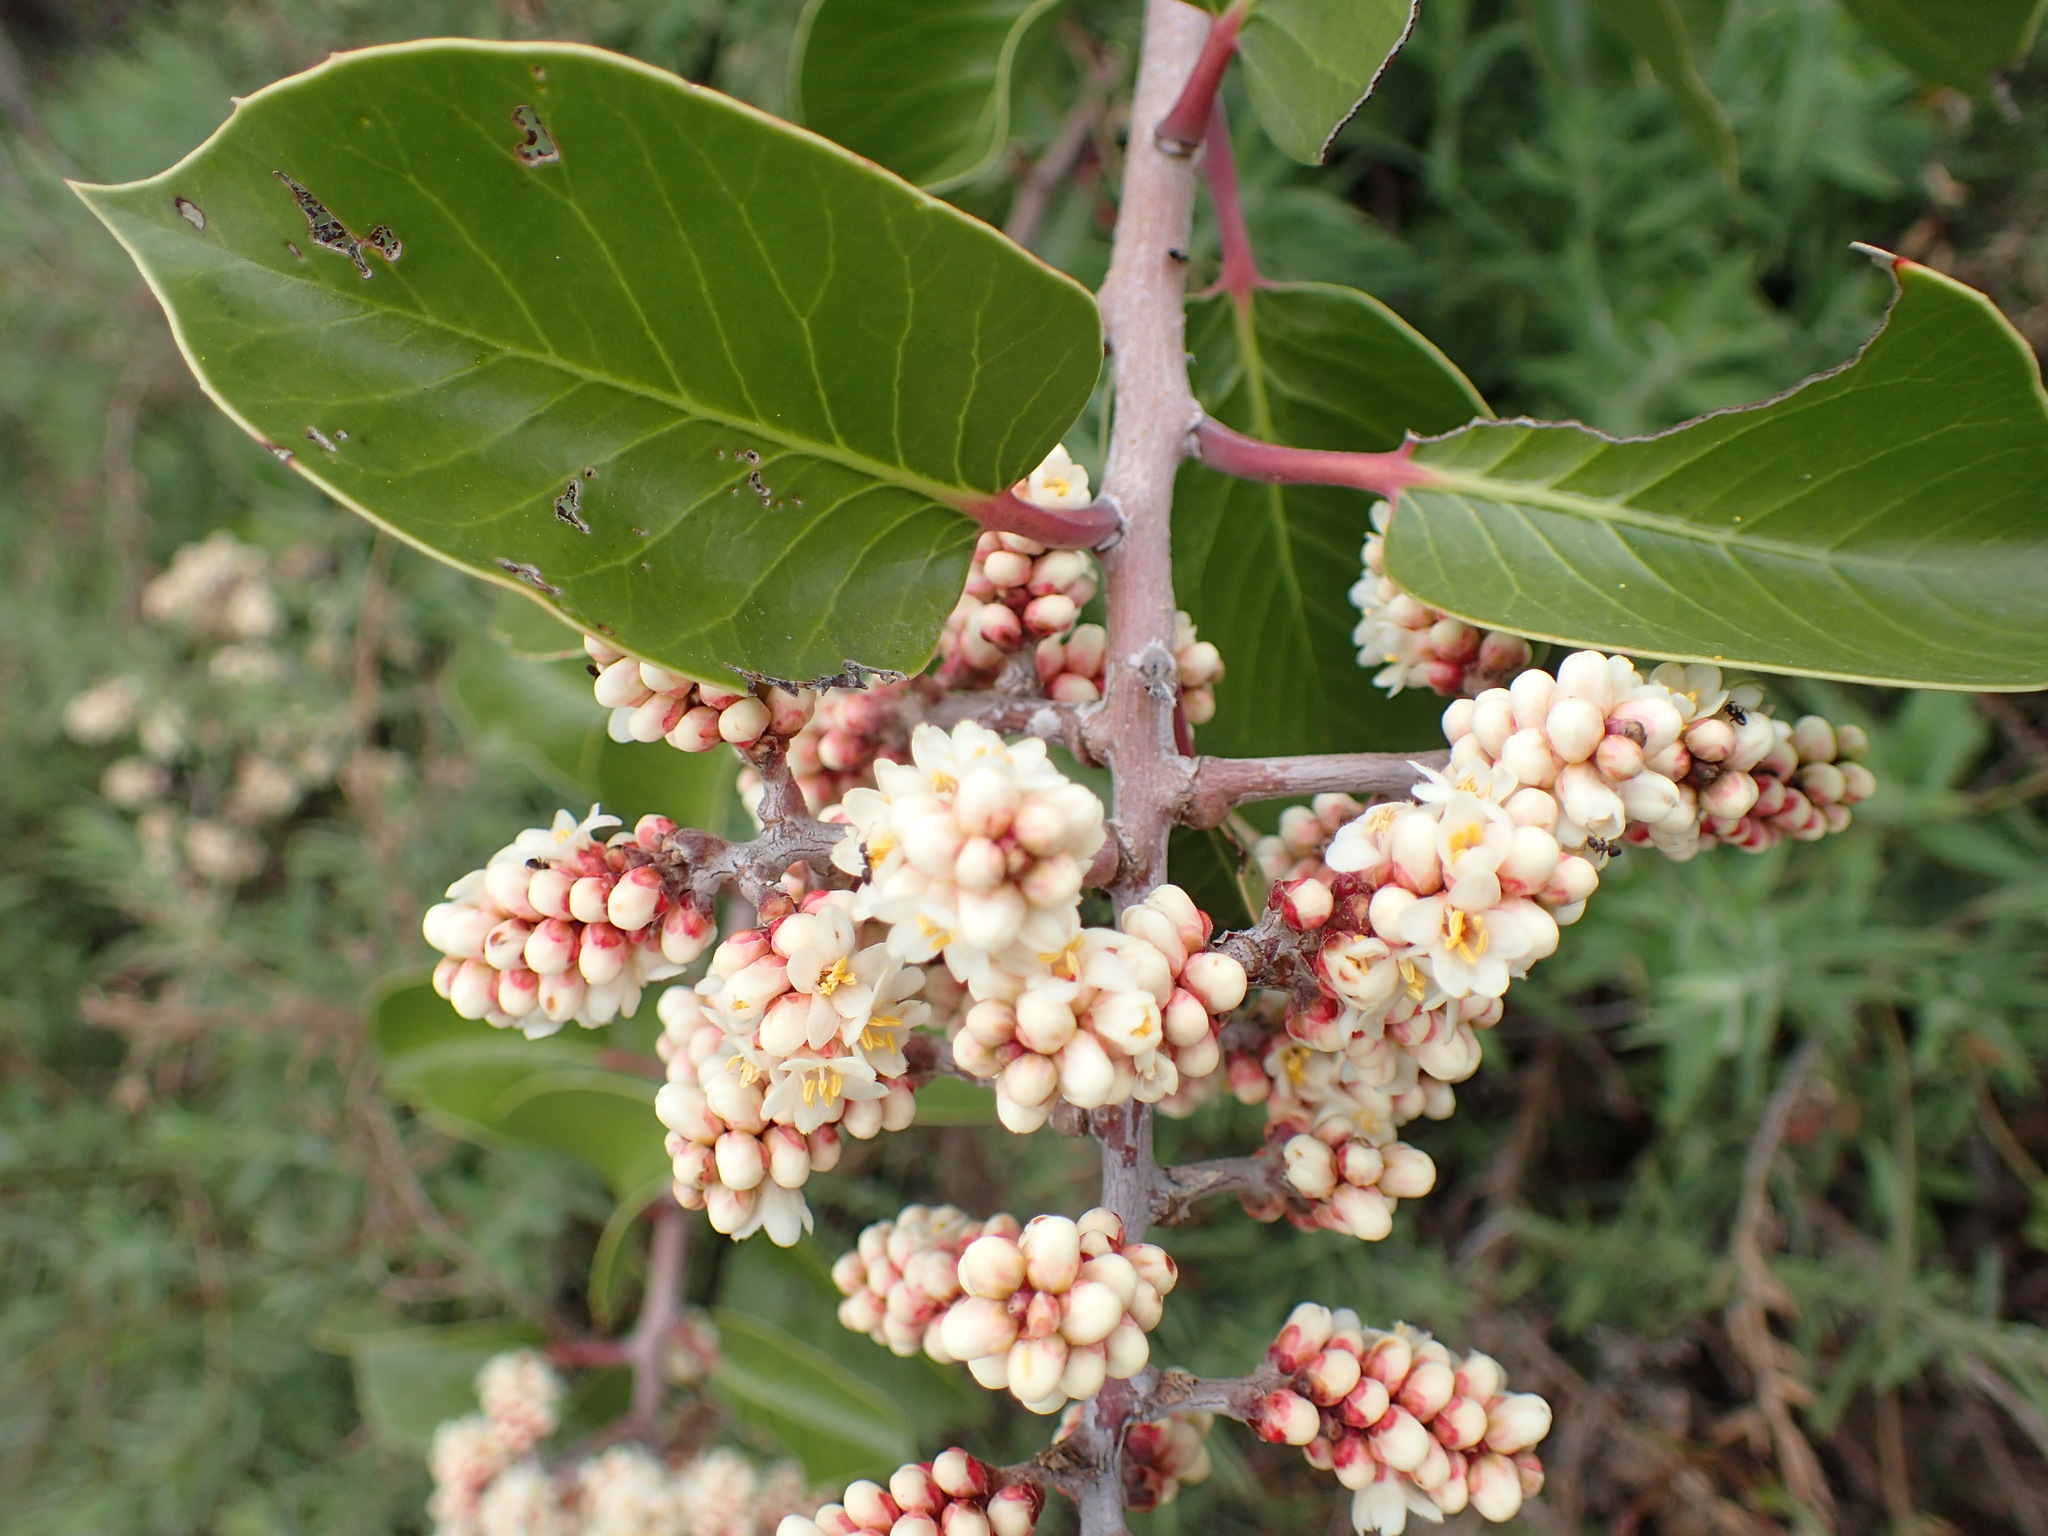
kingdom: Plantae
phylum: Tracheophyta
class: Magnoliopsida
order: Sapindales
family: Anacardiaceae
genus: Rhus
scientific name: Rhus ovata
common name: Sugar sumac
